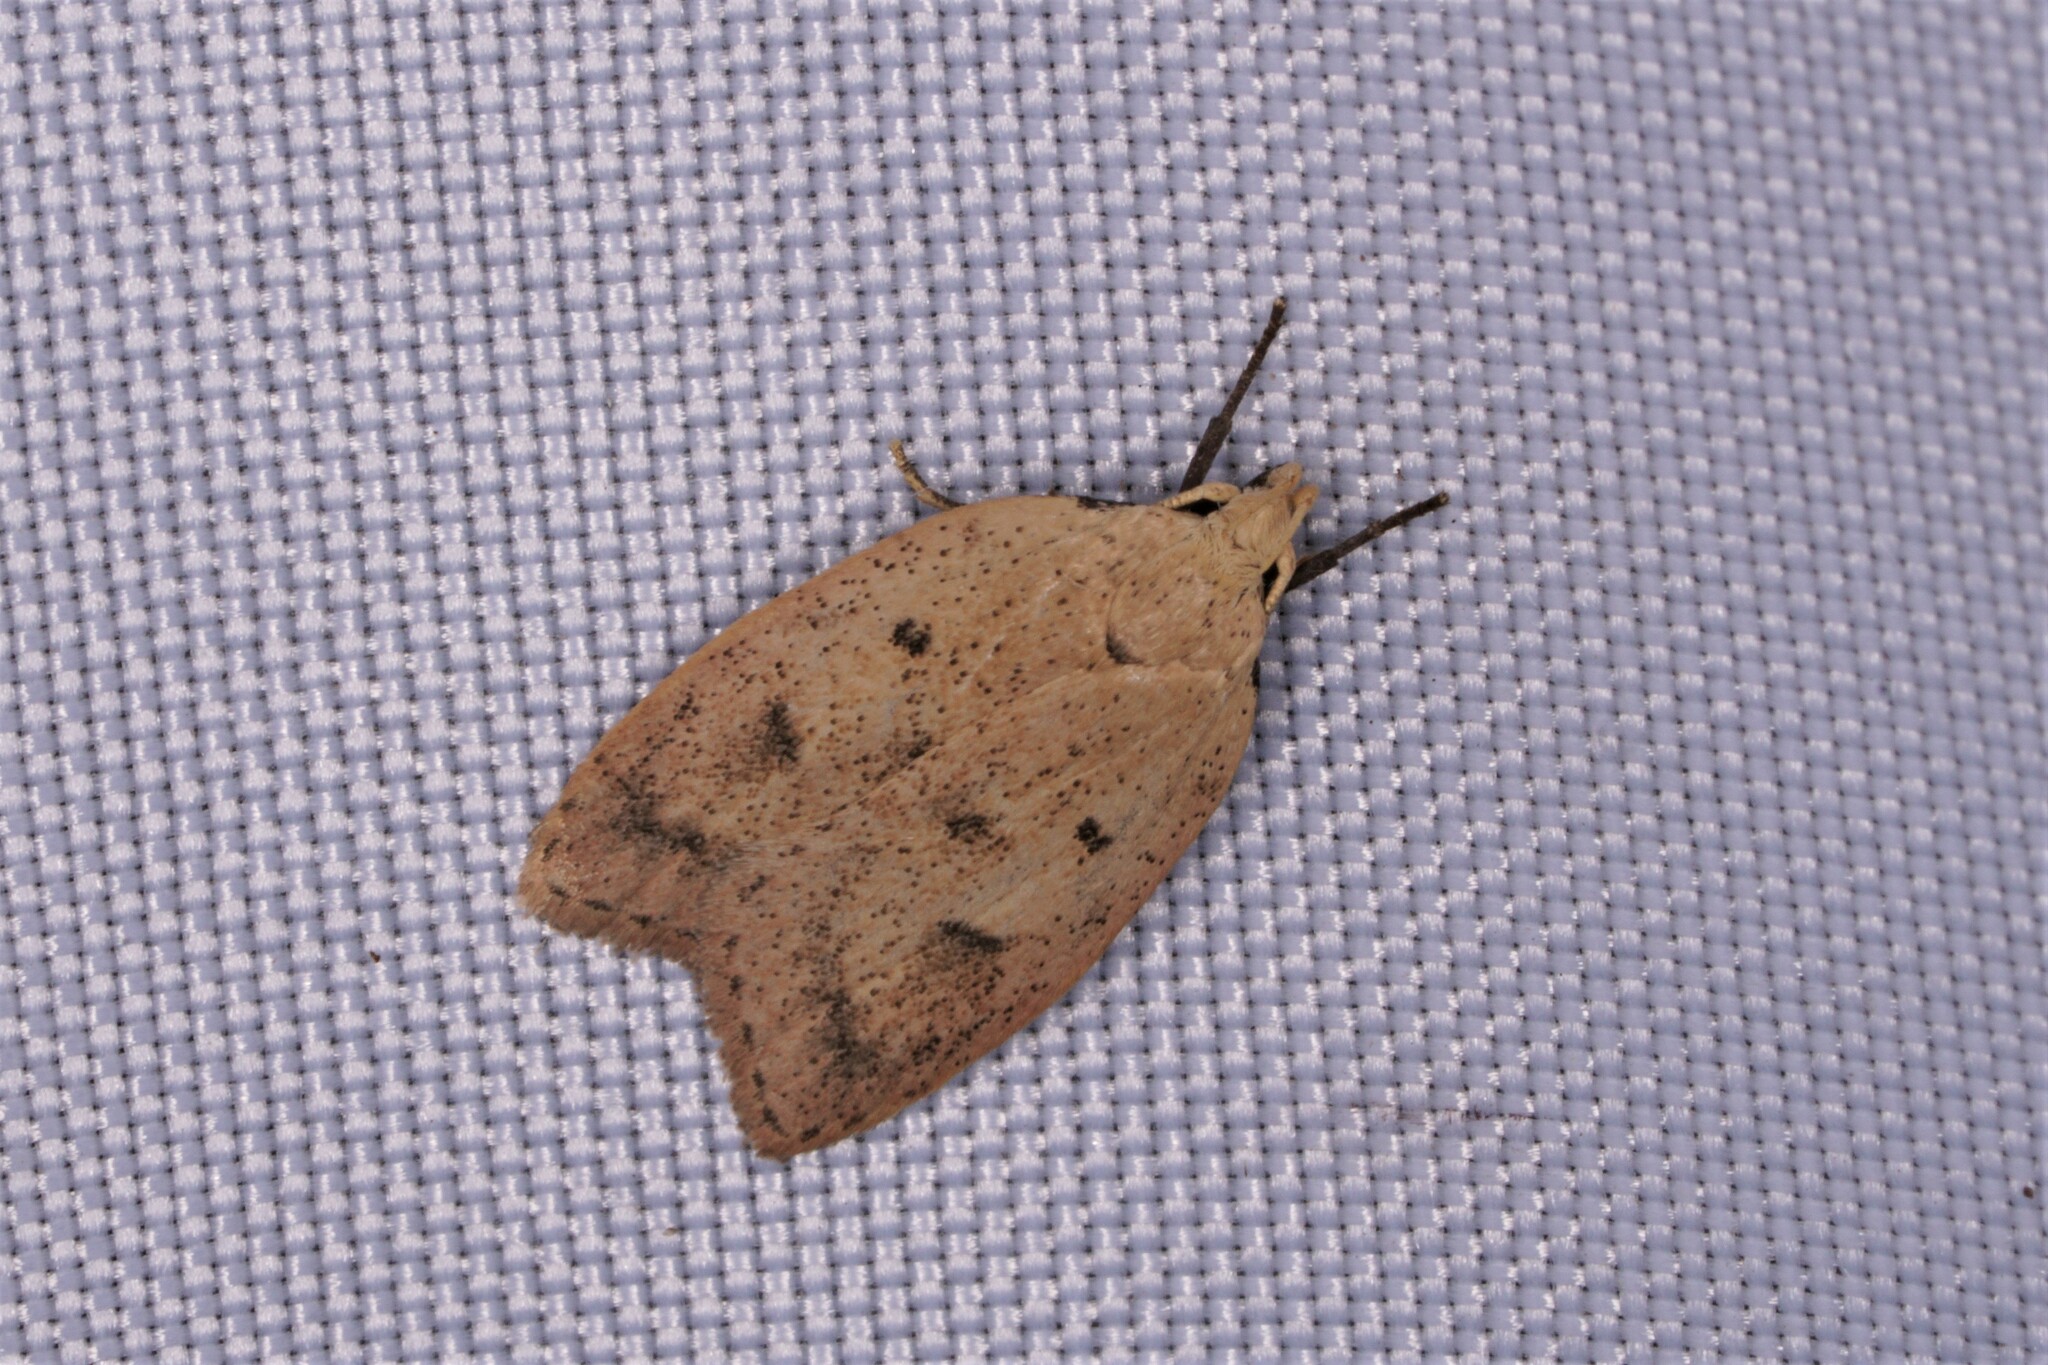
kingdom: Animalia
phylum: Arthropoda
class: Insecta
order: Lepidoptera
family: Peleopodidae
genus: Machimia
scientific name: Machimia tentoriferella
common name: Gold-striped leaftier moth
